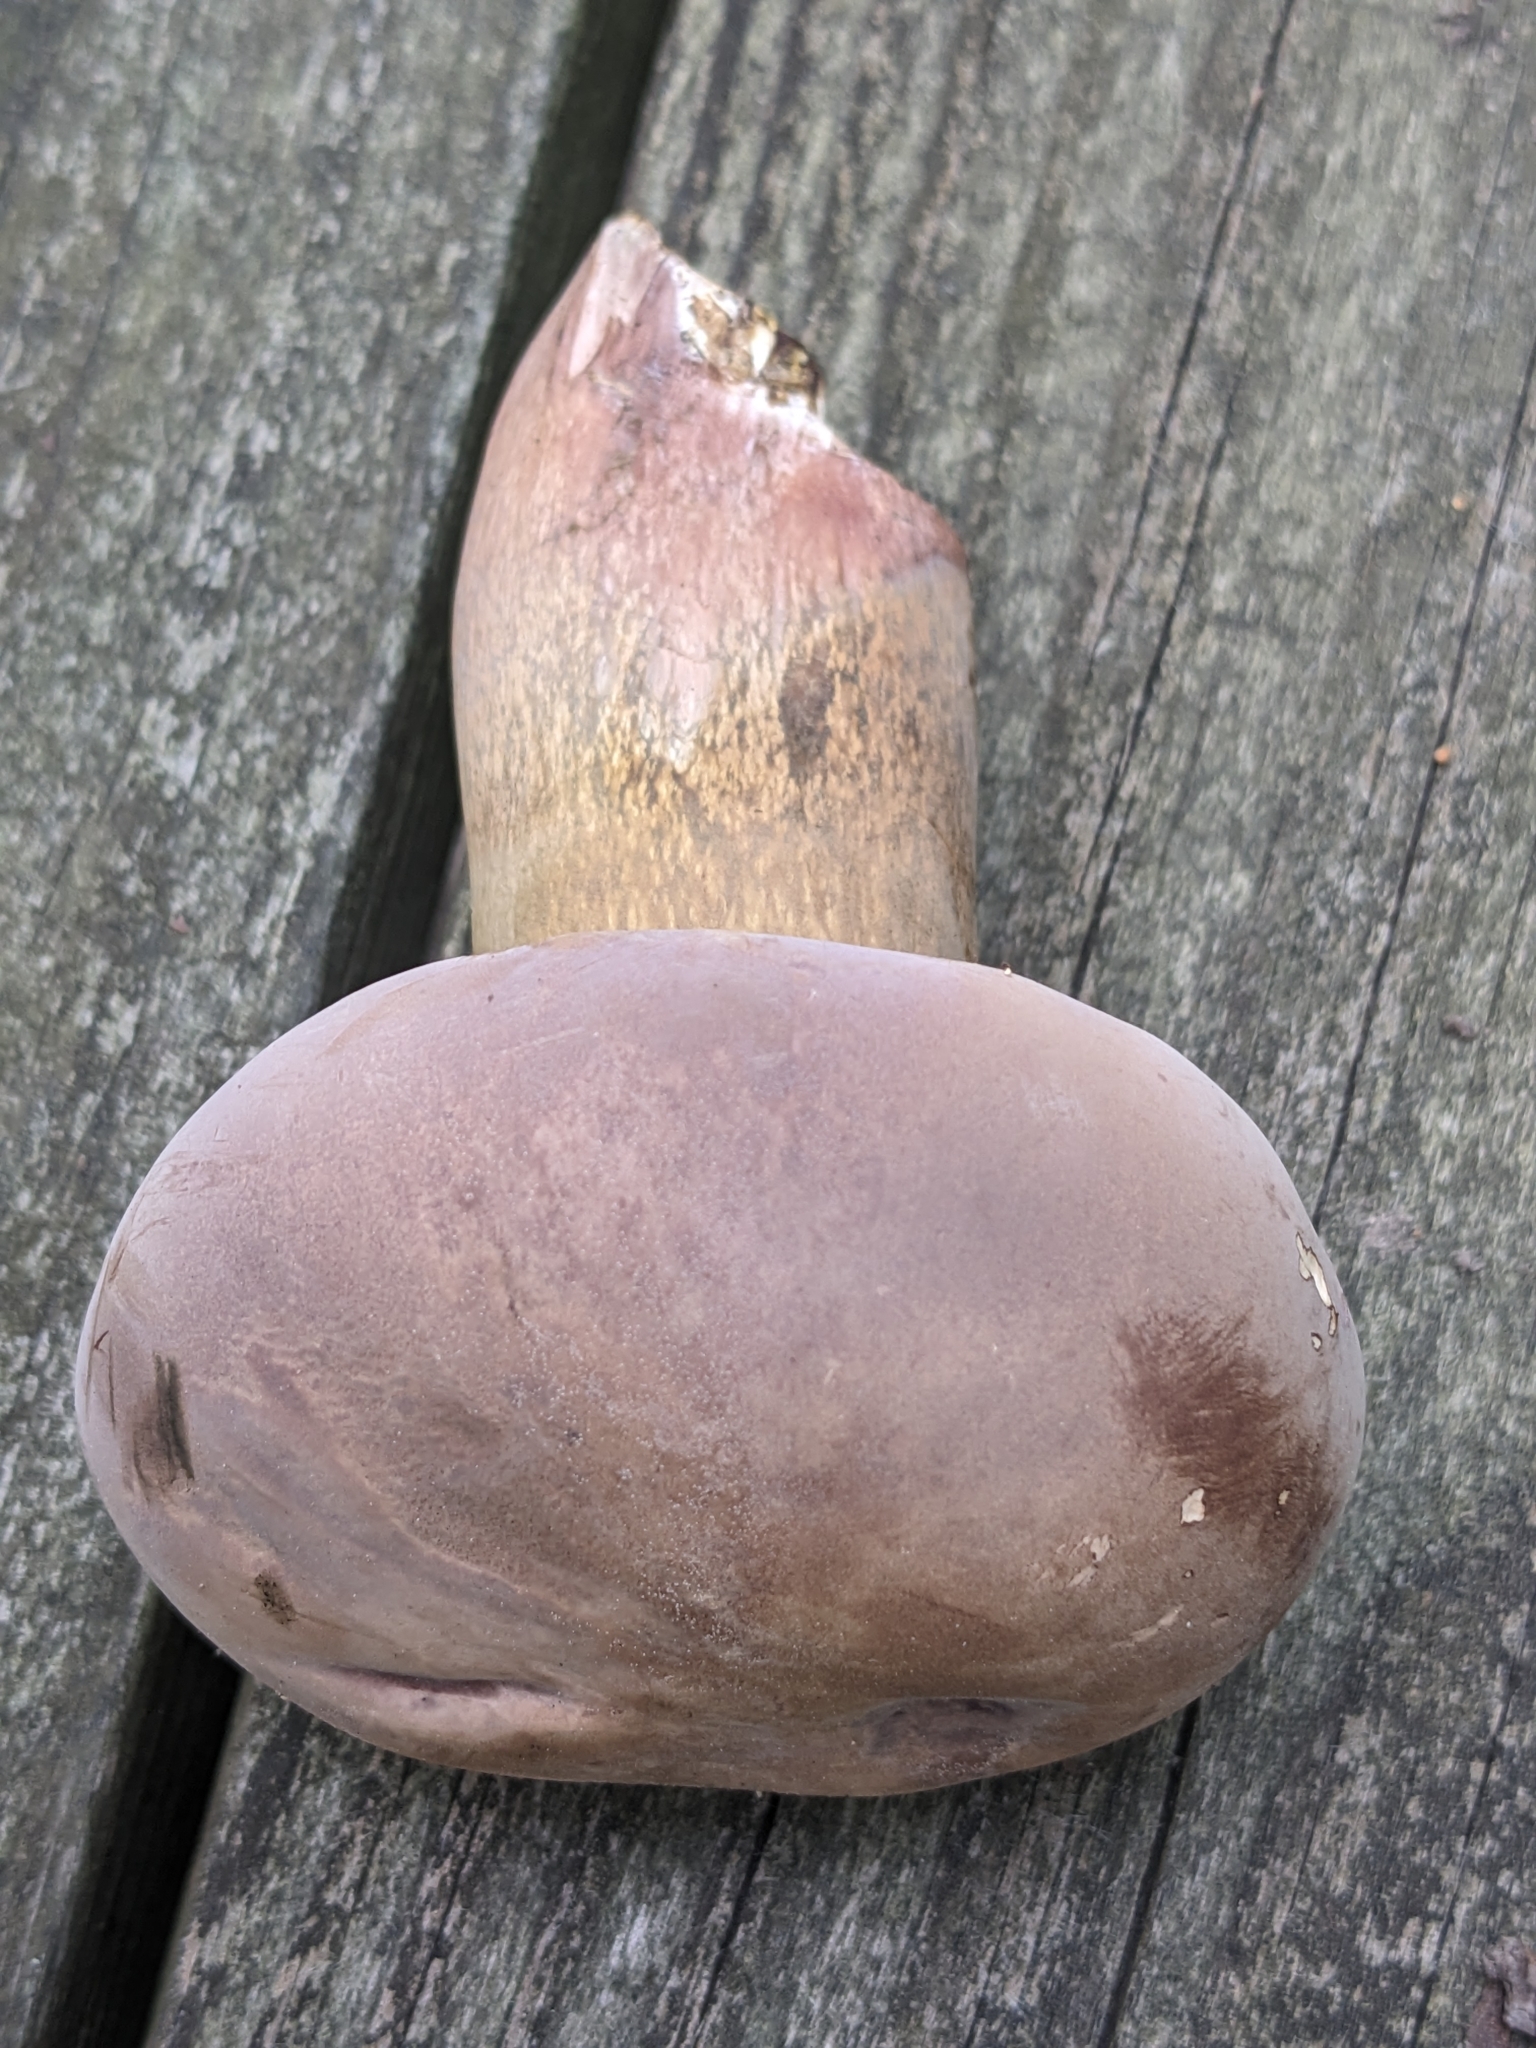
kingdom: Fungi
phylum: Basidiomycota
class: Agaricomycetes
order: Boletales
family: Boletaceae
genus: Tylopilus
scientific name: Tylopilus rubrobrunneus
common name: Reddish brown bitter bolete
